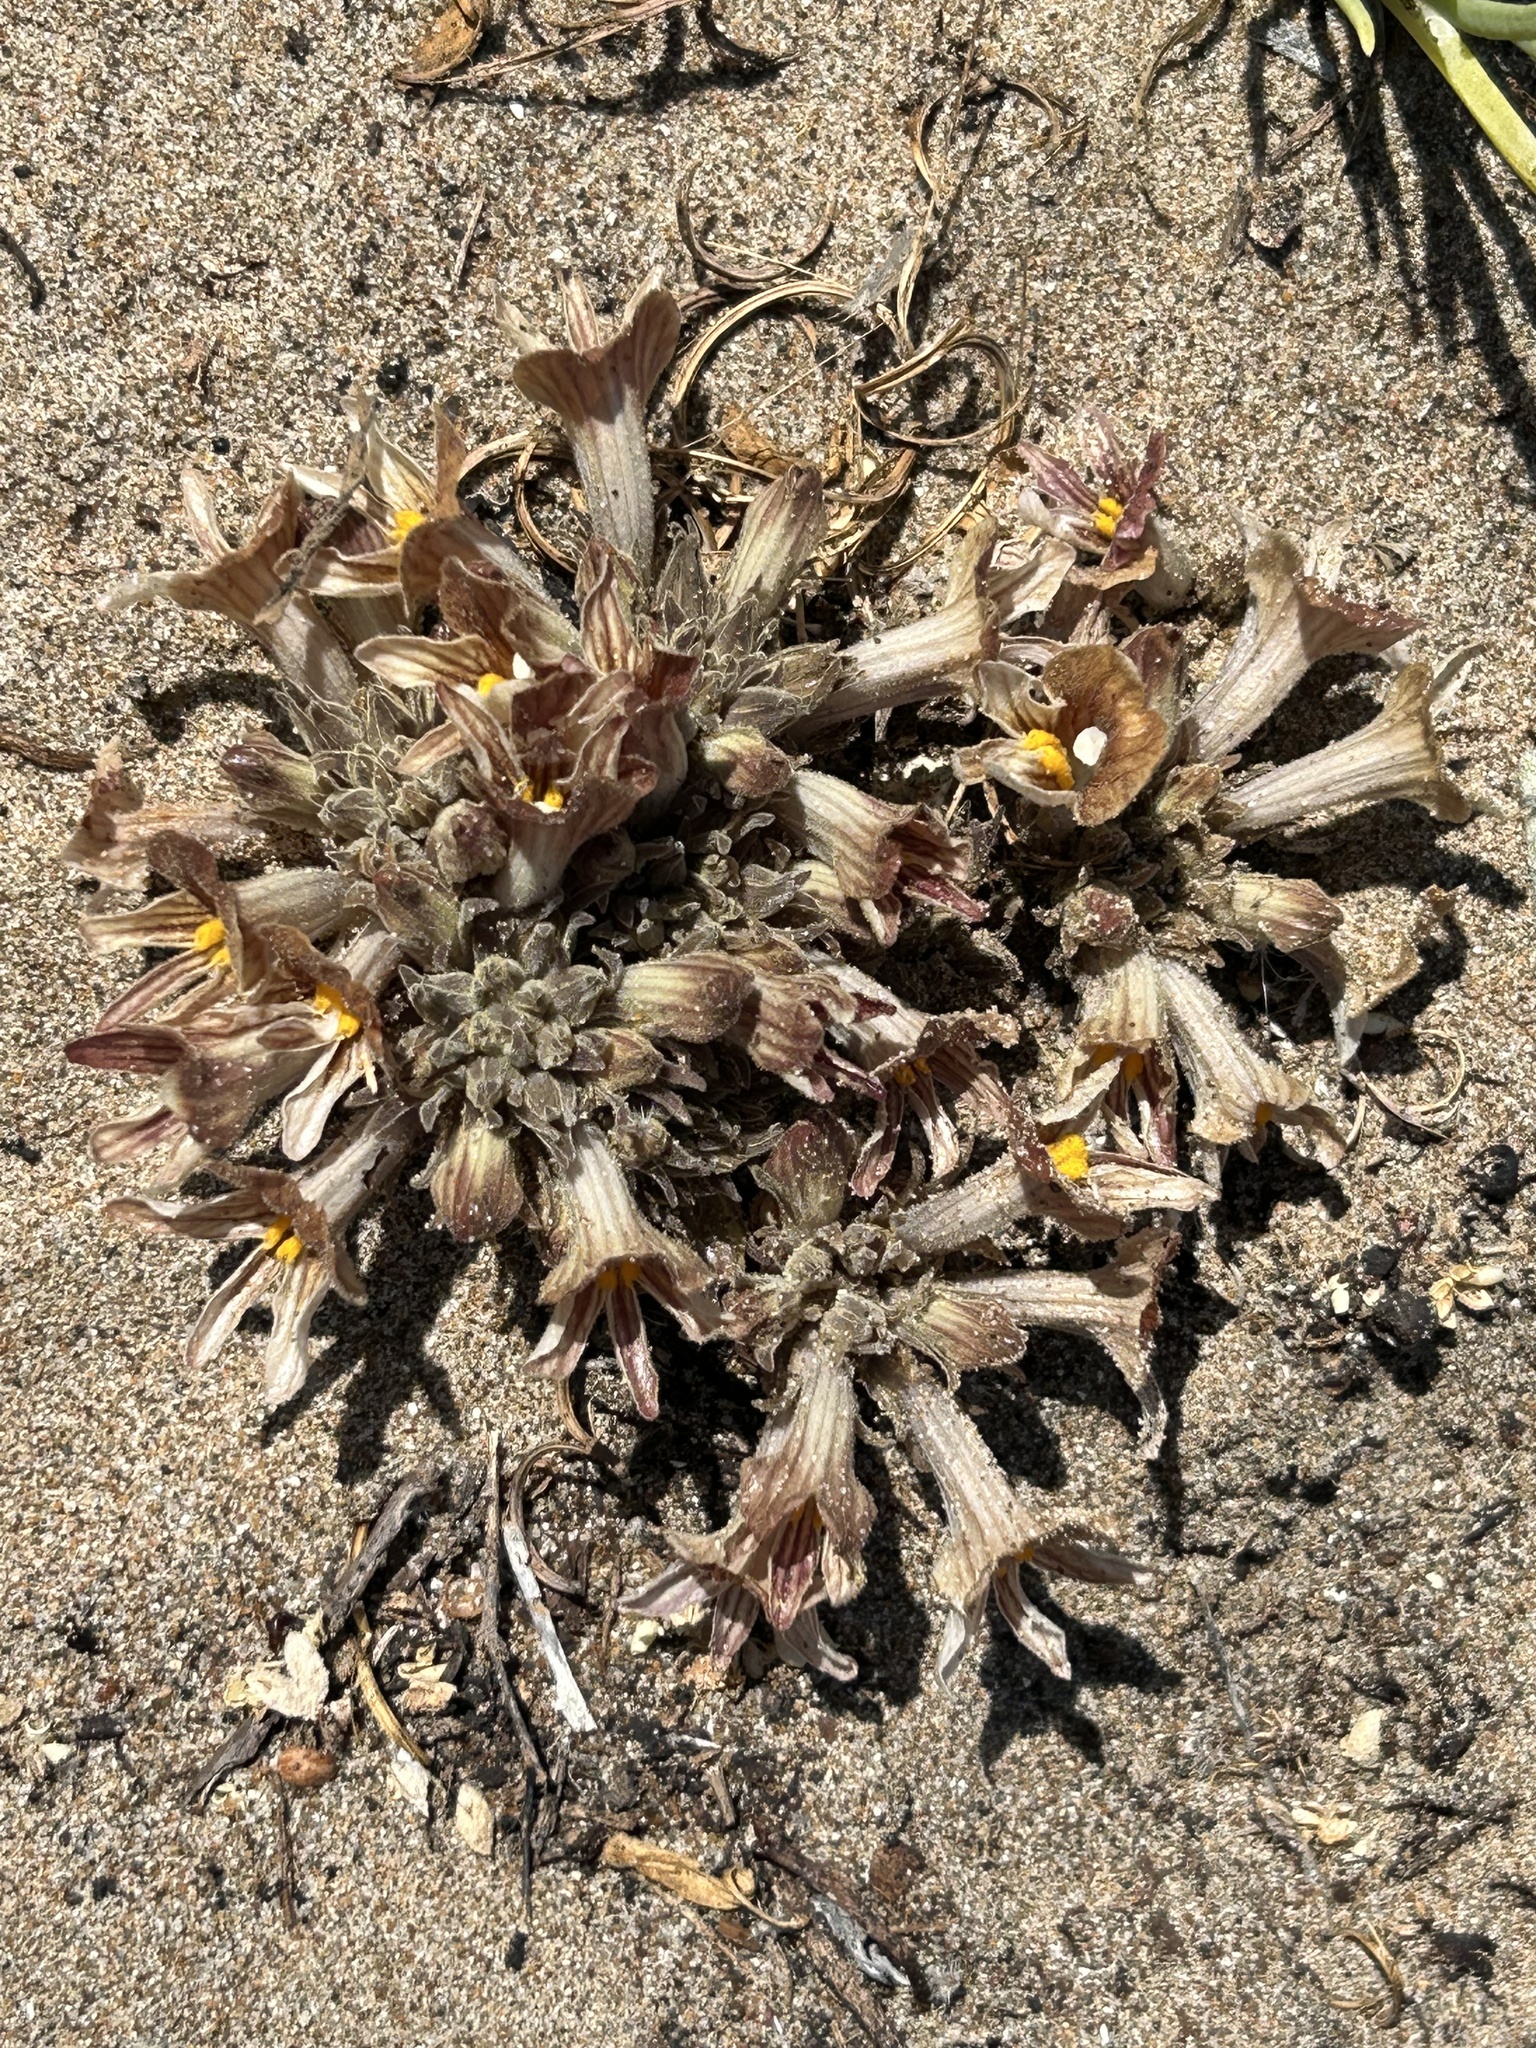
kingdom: Plantae
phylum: Tracheophyta
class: Magnoliopsida
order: Lamiales
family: Orobanchaceae
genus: Aphyllon
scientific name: Aphyllon californicum
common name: California broomrape
